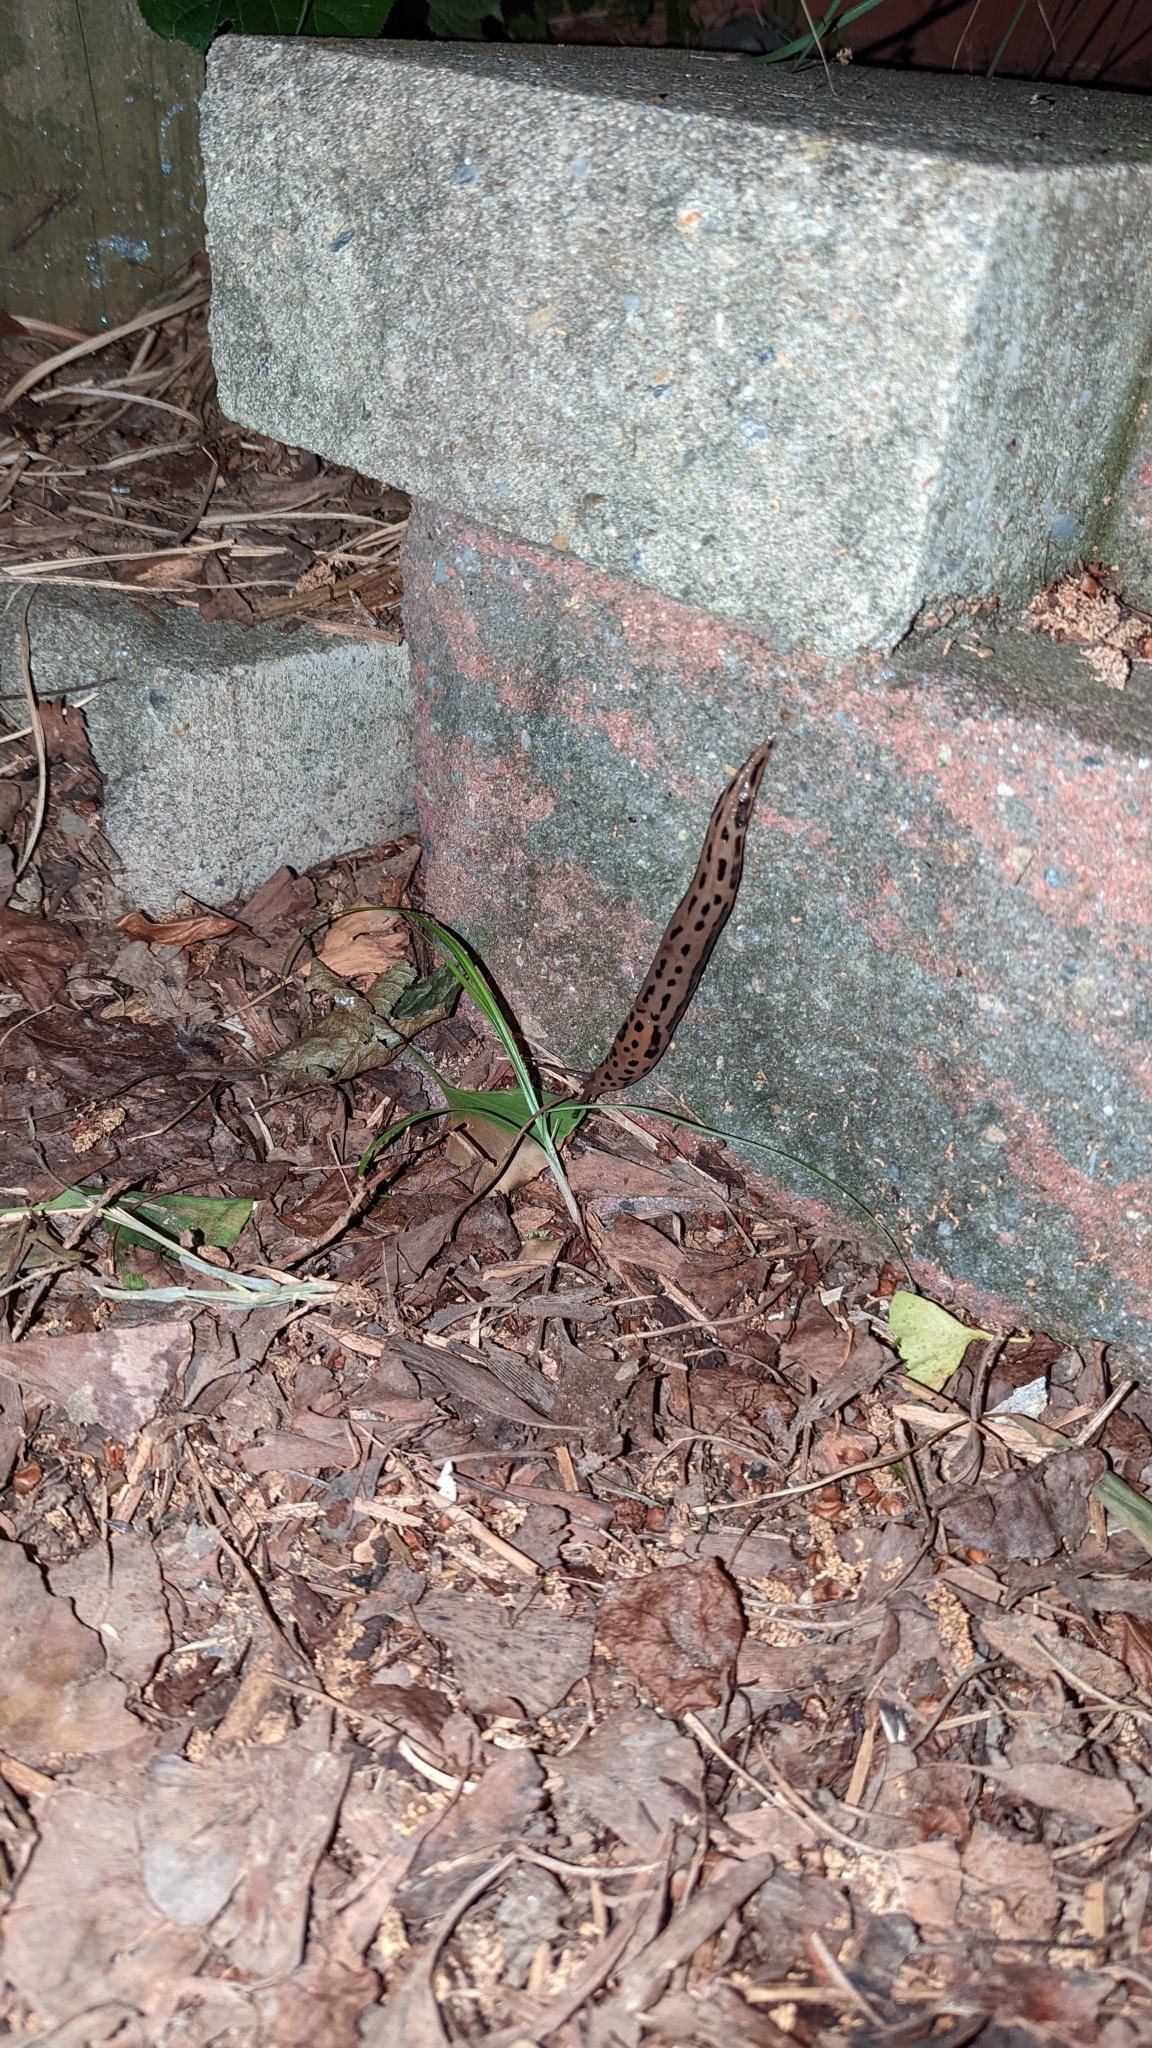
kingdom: Animalia
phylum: Mollusca
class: Gastropoda
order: Stylommatophora
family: Limacidae
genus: Limax
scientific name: Limax maximus
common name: Great grey slug
